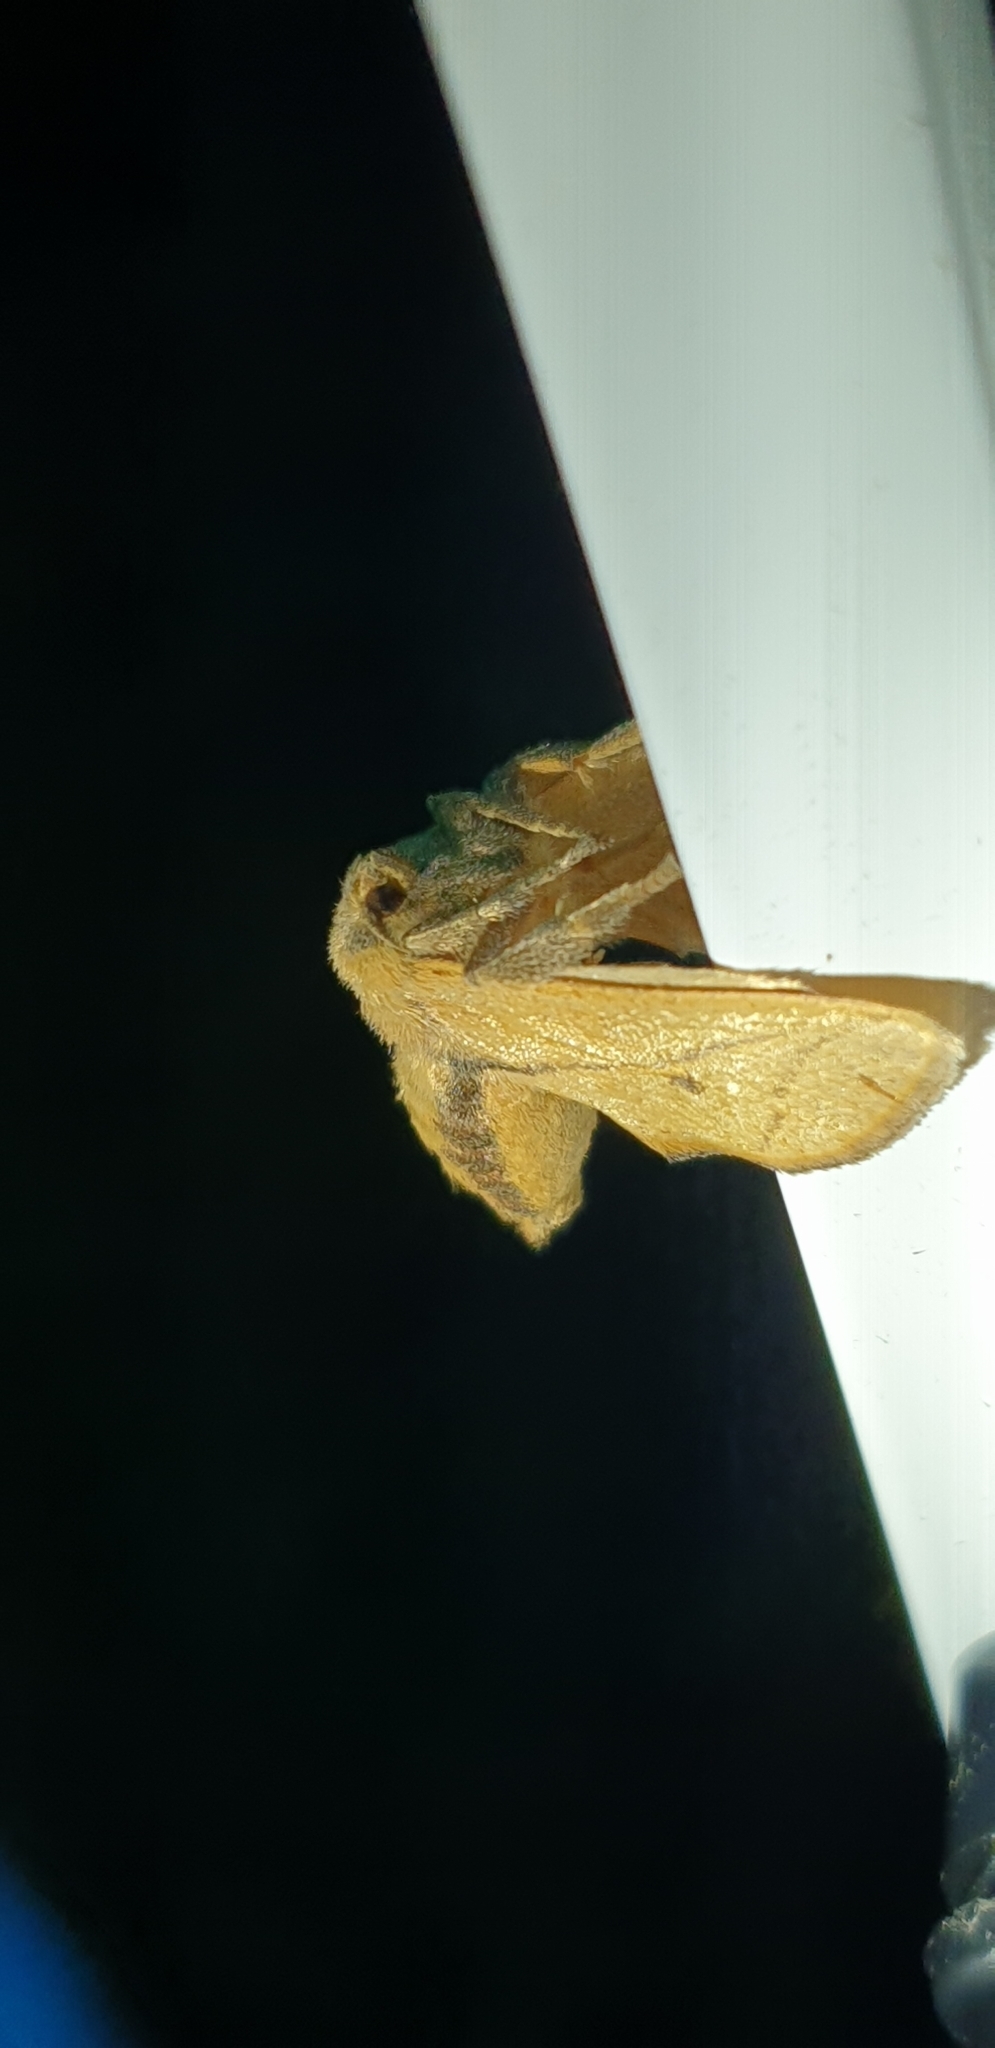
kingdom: Animalia
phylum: Arthropoda
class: Insecta
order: Lepidoptera
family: Limacodidae
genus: Anaxidia
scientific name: Anaxidia lozogramma
